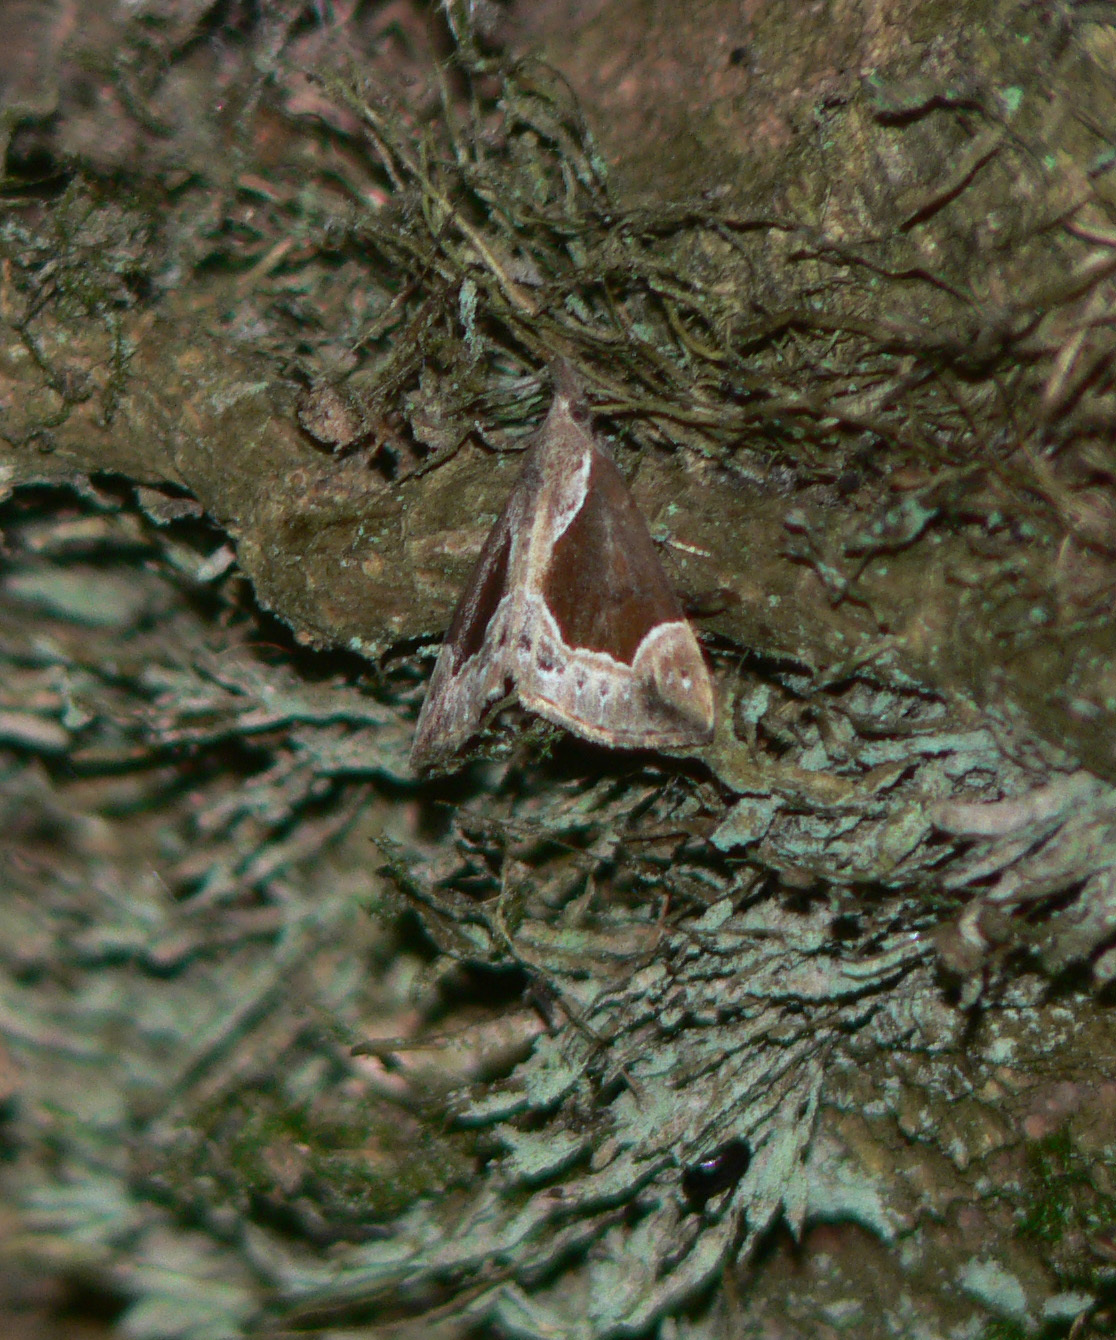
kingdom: Animalia
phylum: Arthropoda
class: Insecta
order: Lepidoptera
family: Erebidae
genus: Hypena
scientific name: Hypena crassalis
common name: Beautiful snout
